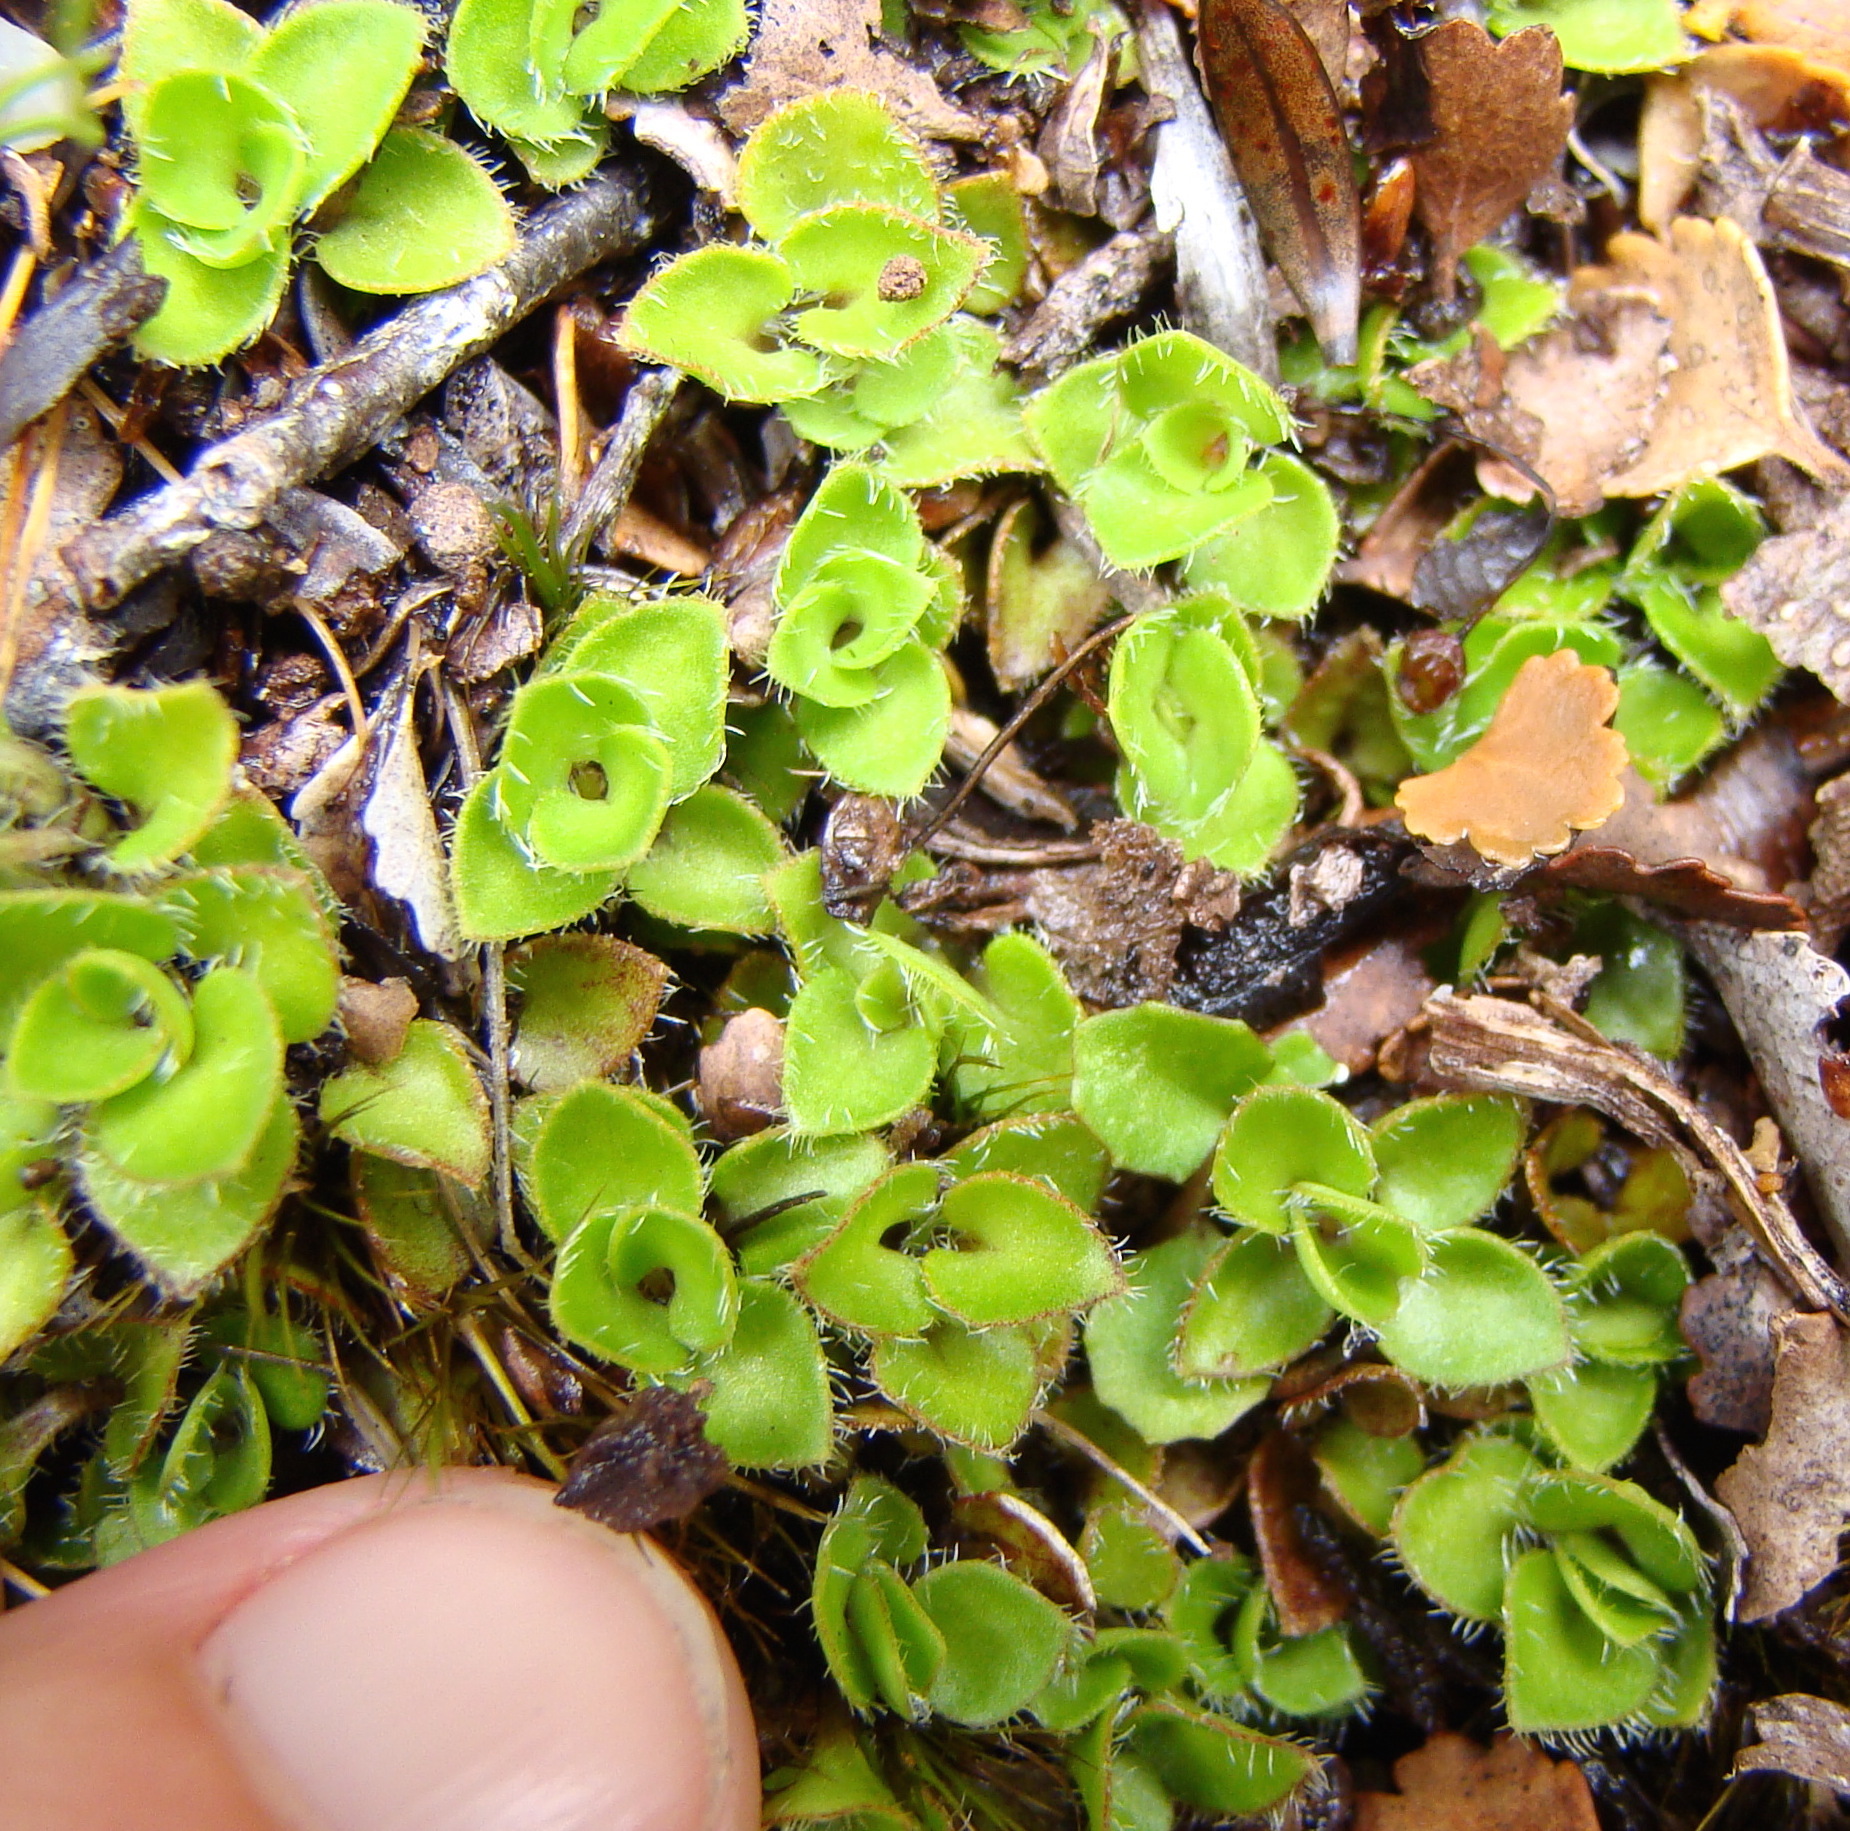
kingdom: Plantae
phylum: Tracheophyta
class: Magnoliopsida
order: Gentianales
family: Rubiaceae
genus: Nertera
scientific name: Nertera ciliata
